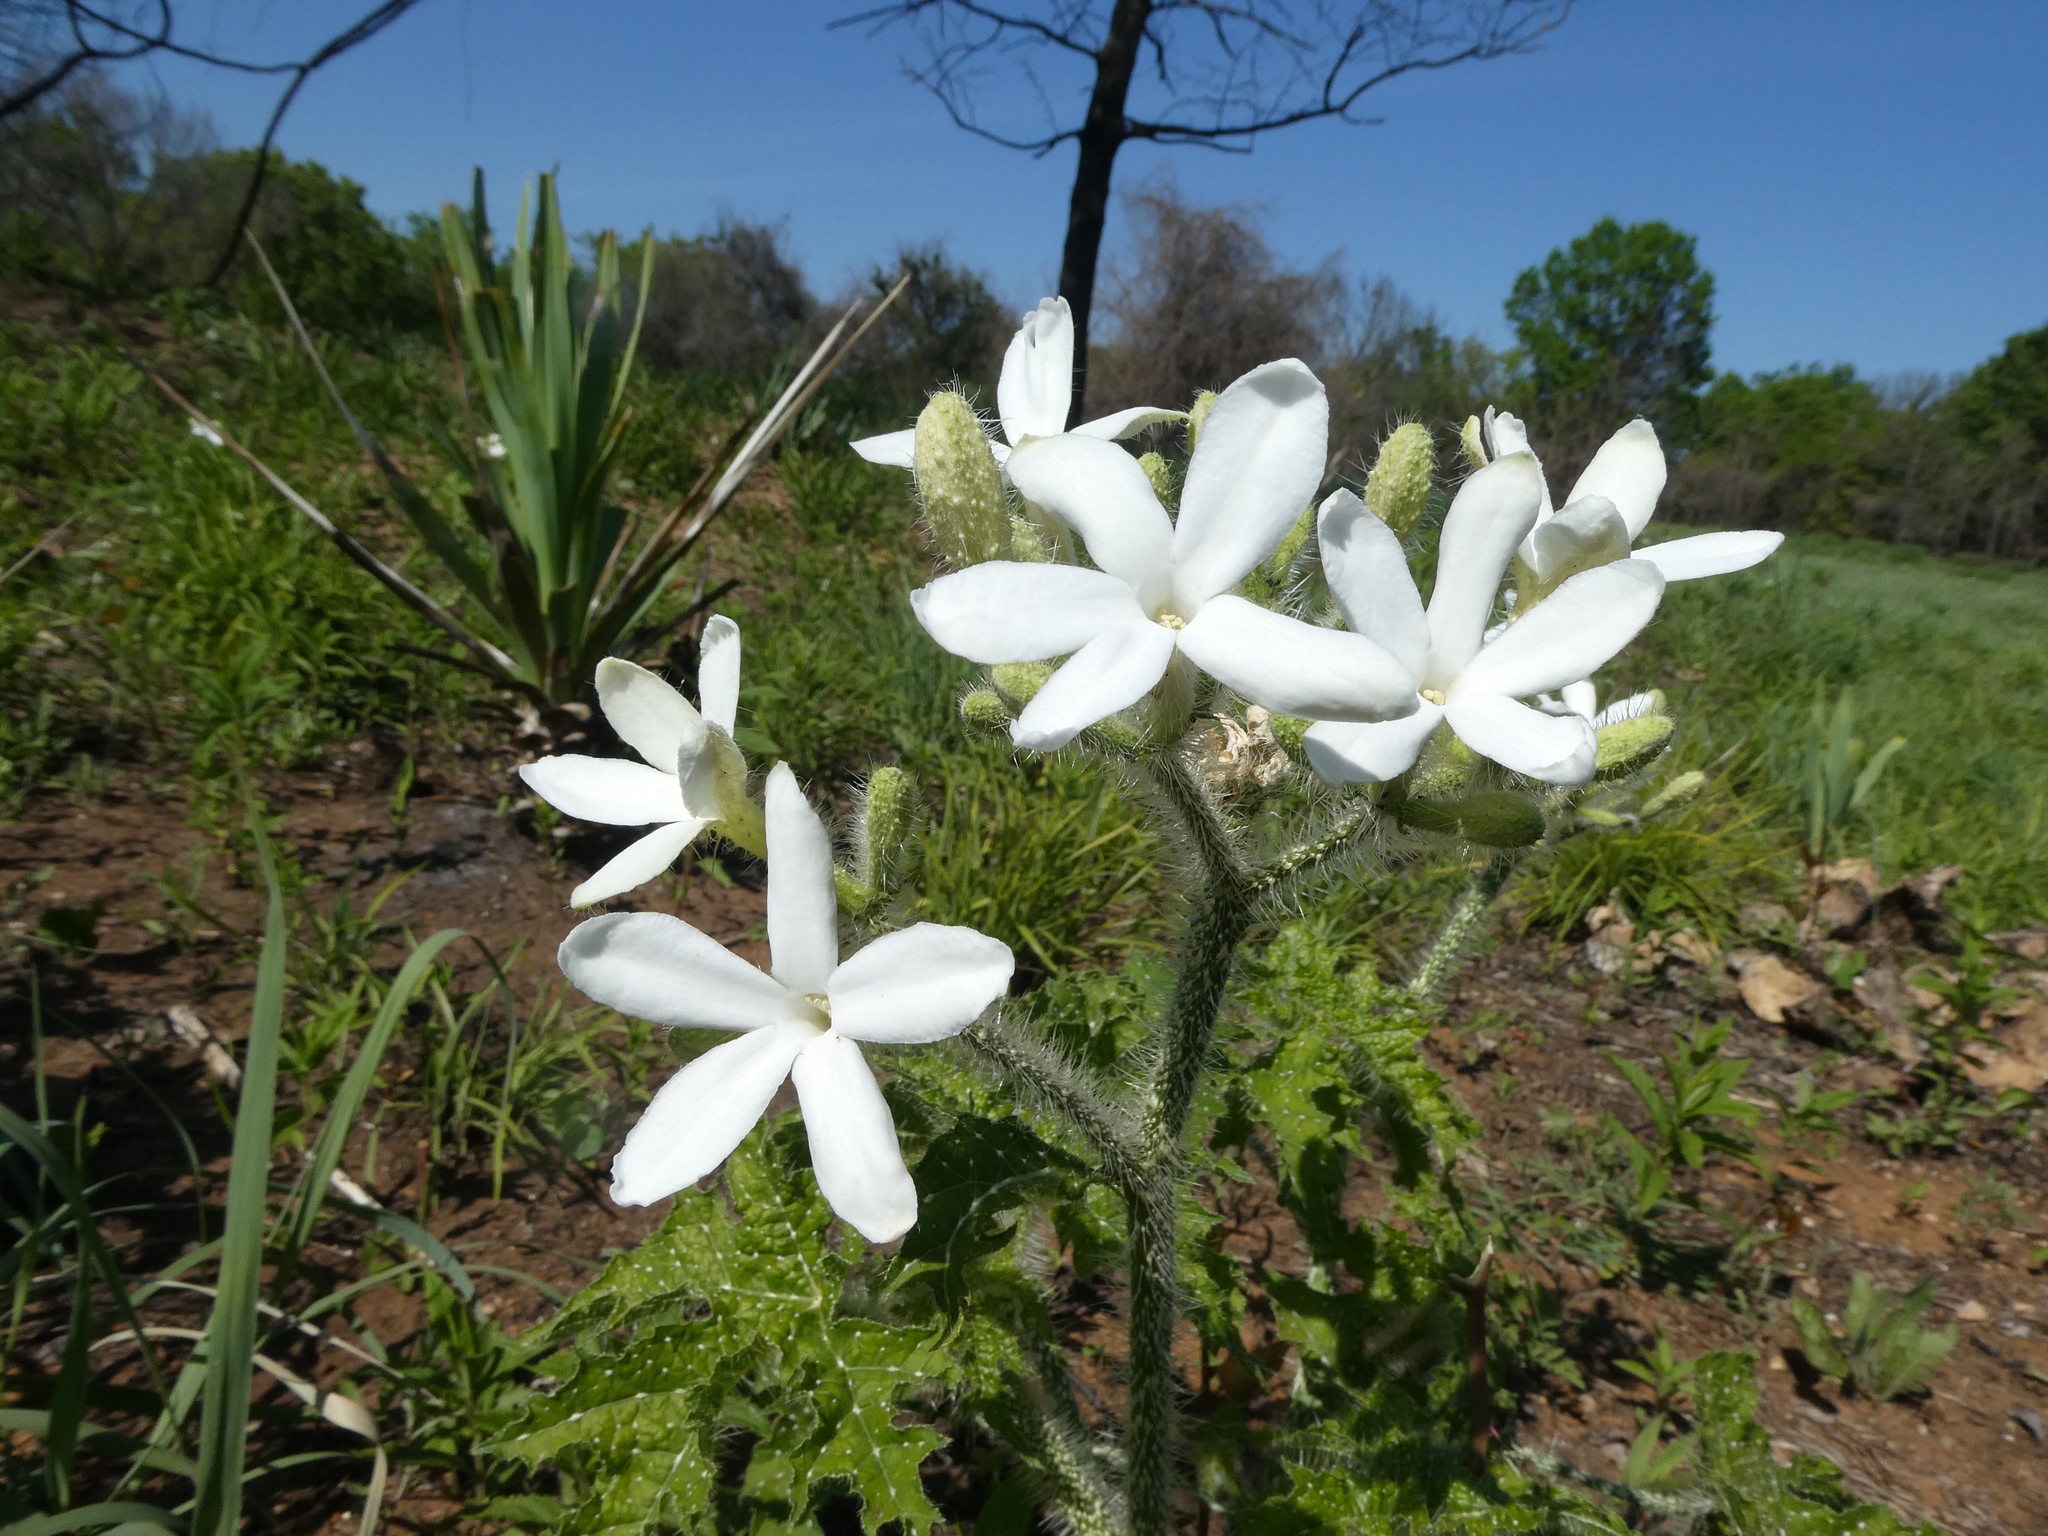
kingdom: Plantae
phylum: Tracheophyta
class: Magnoliopsida
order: Malpighiales
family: Euphorbiaceae
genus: Cnidoscolus
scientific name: Cnidoscolus texanus
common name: Texas bull-nettle
